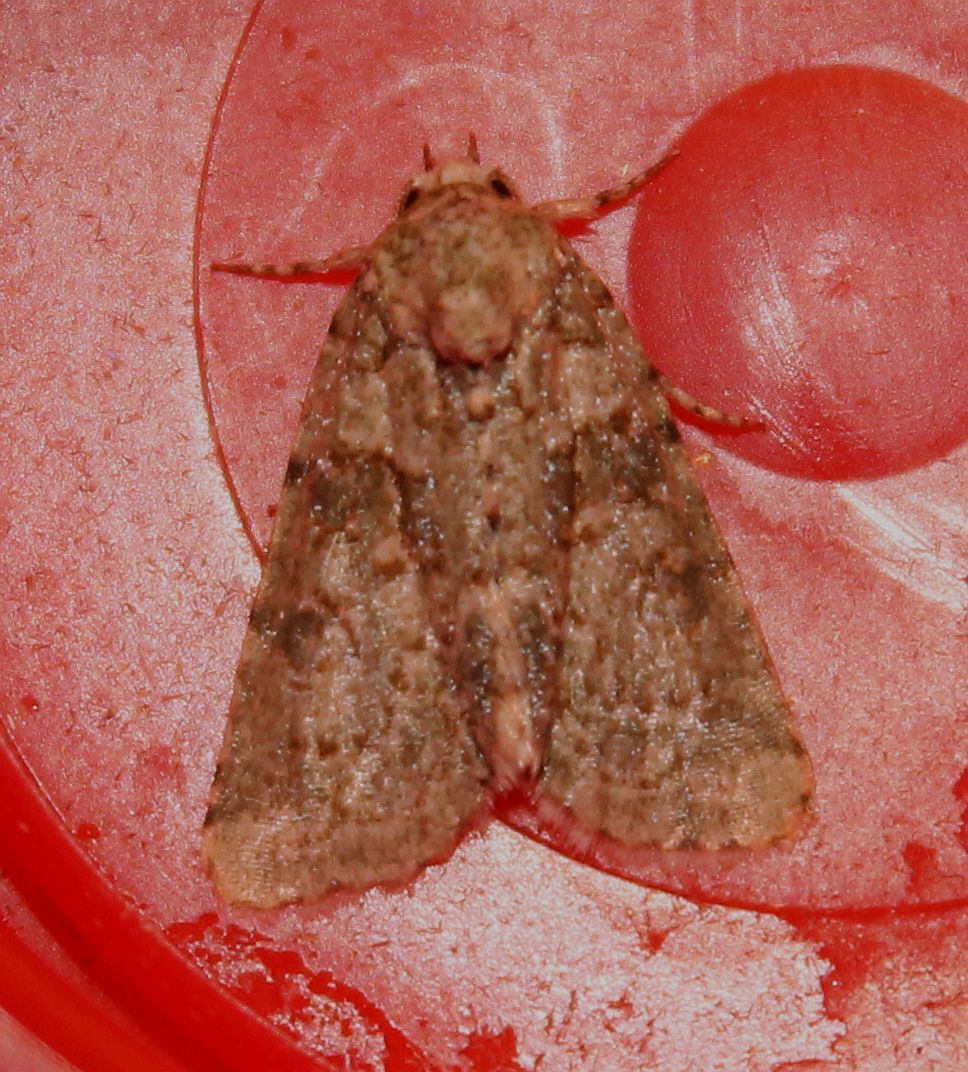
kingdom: Animalia
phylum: Arthropoda
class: Insecta
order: Lepidoptera
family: Noctuidae
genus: Nyctobrya
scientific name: Nyctobrya muralis
